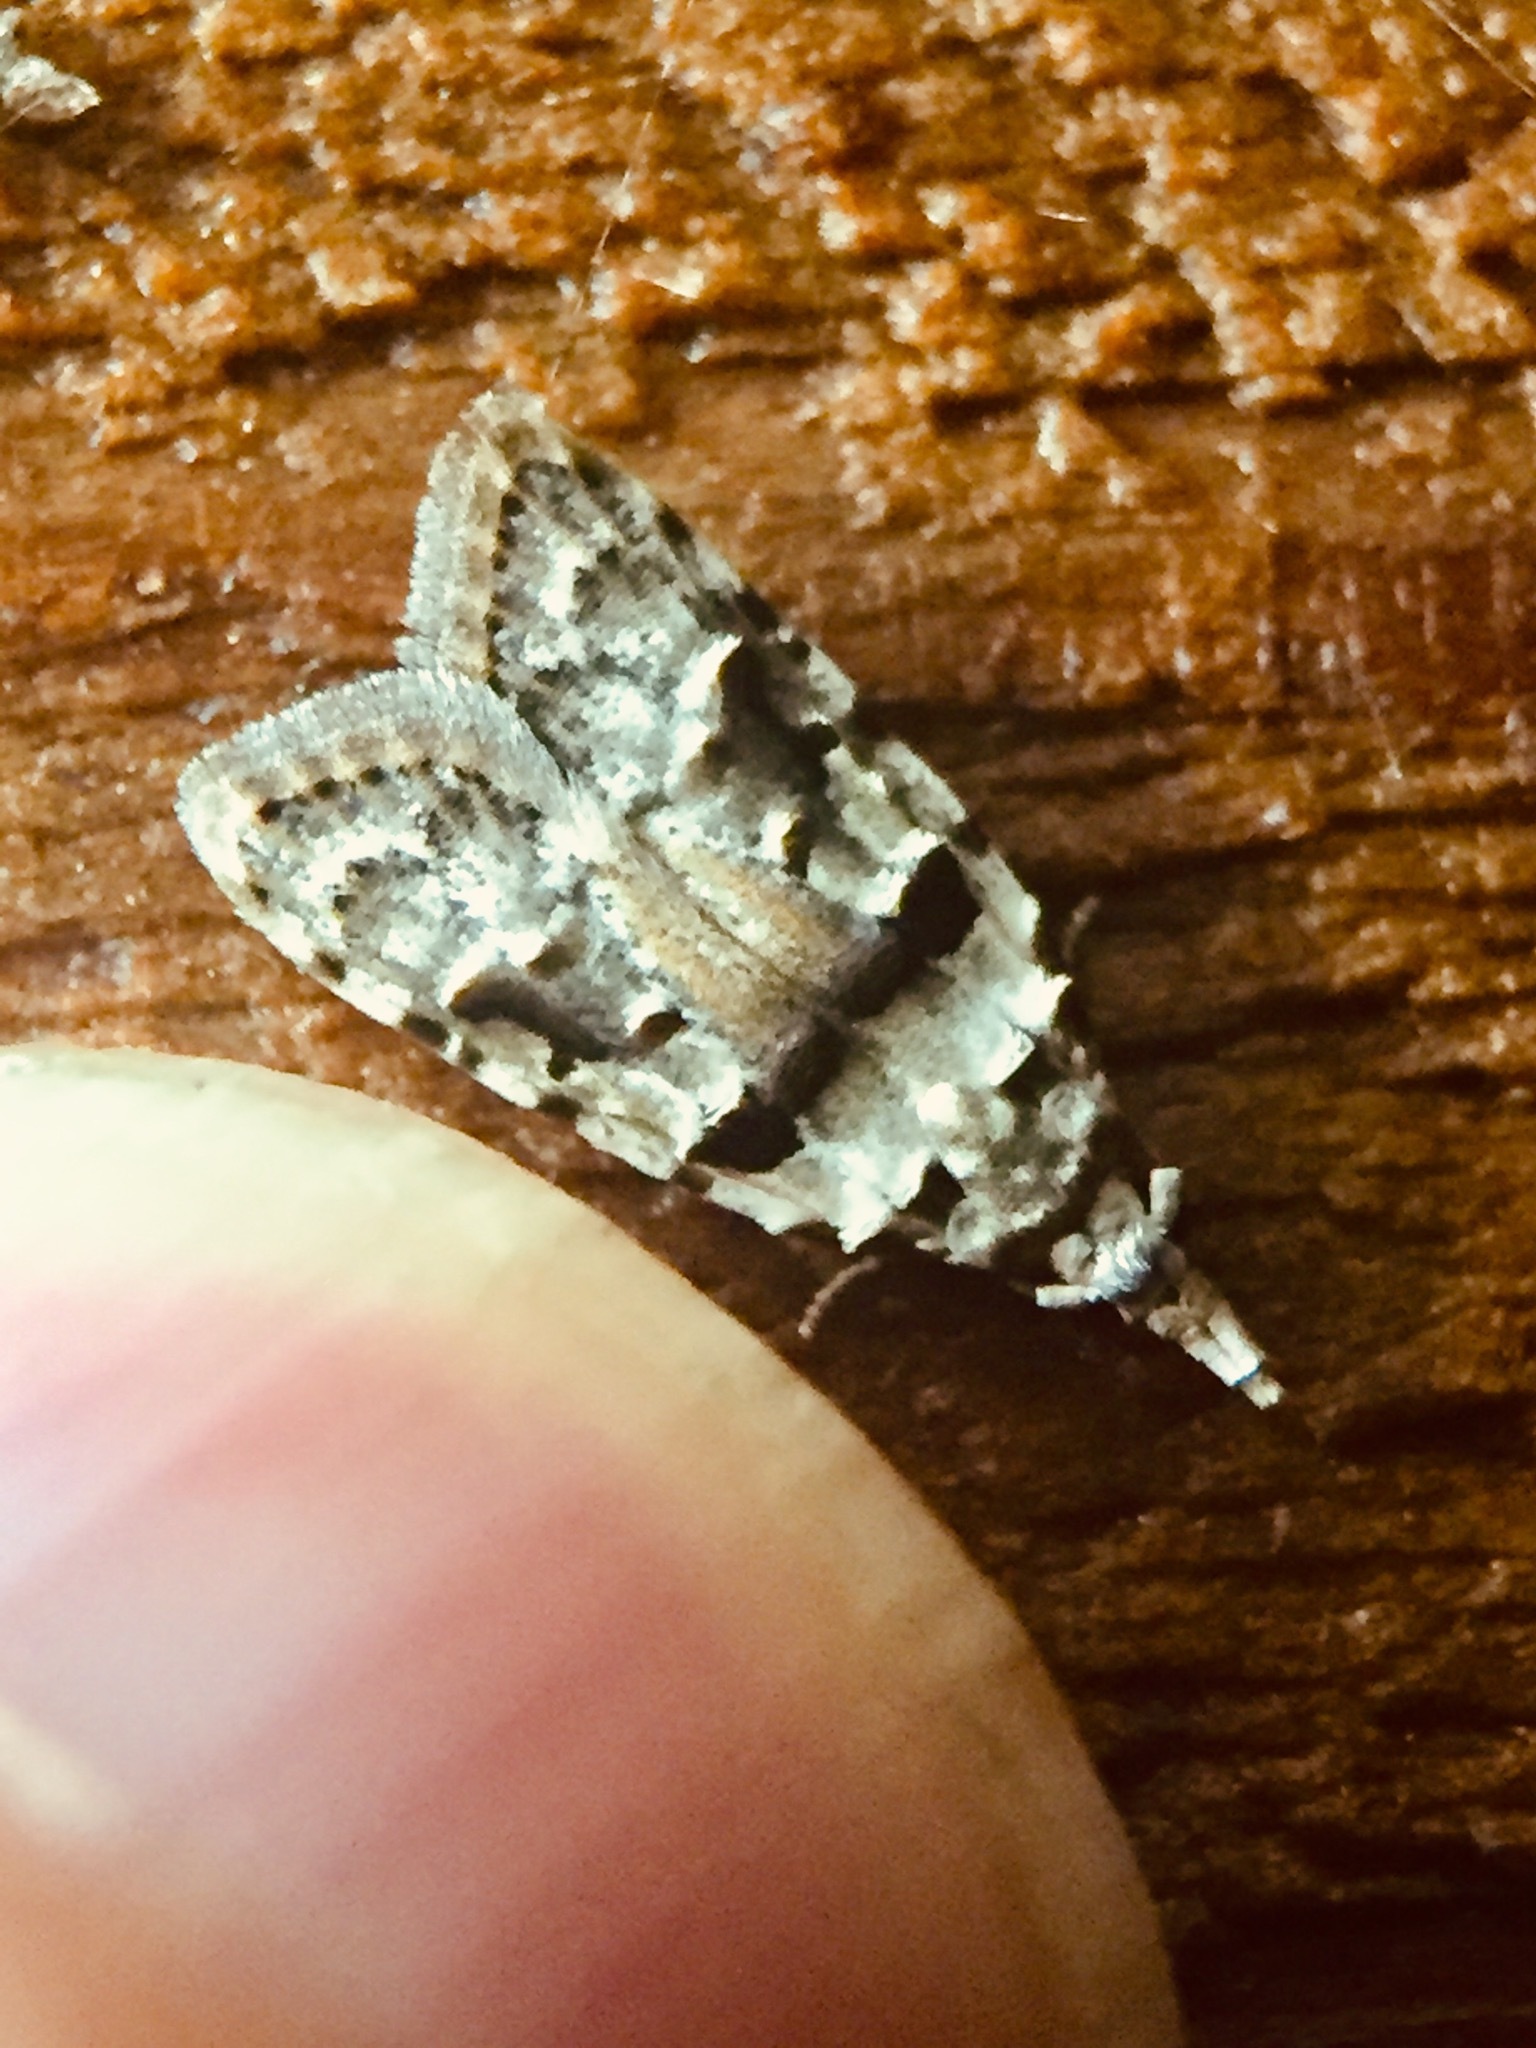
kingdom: Animalia
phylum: Arthropoda
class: Insecta
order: Lepidoptera
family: Carposinidae
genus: Coscinoptycha
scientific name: Coscinoptycha improbana
